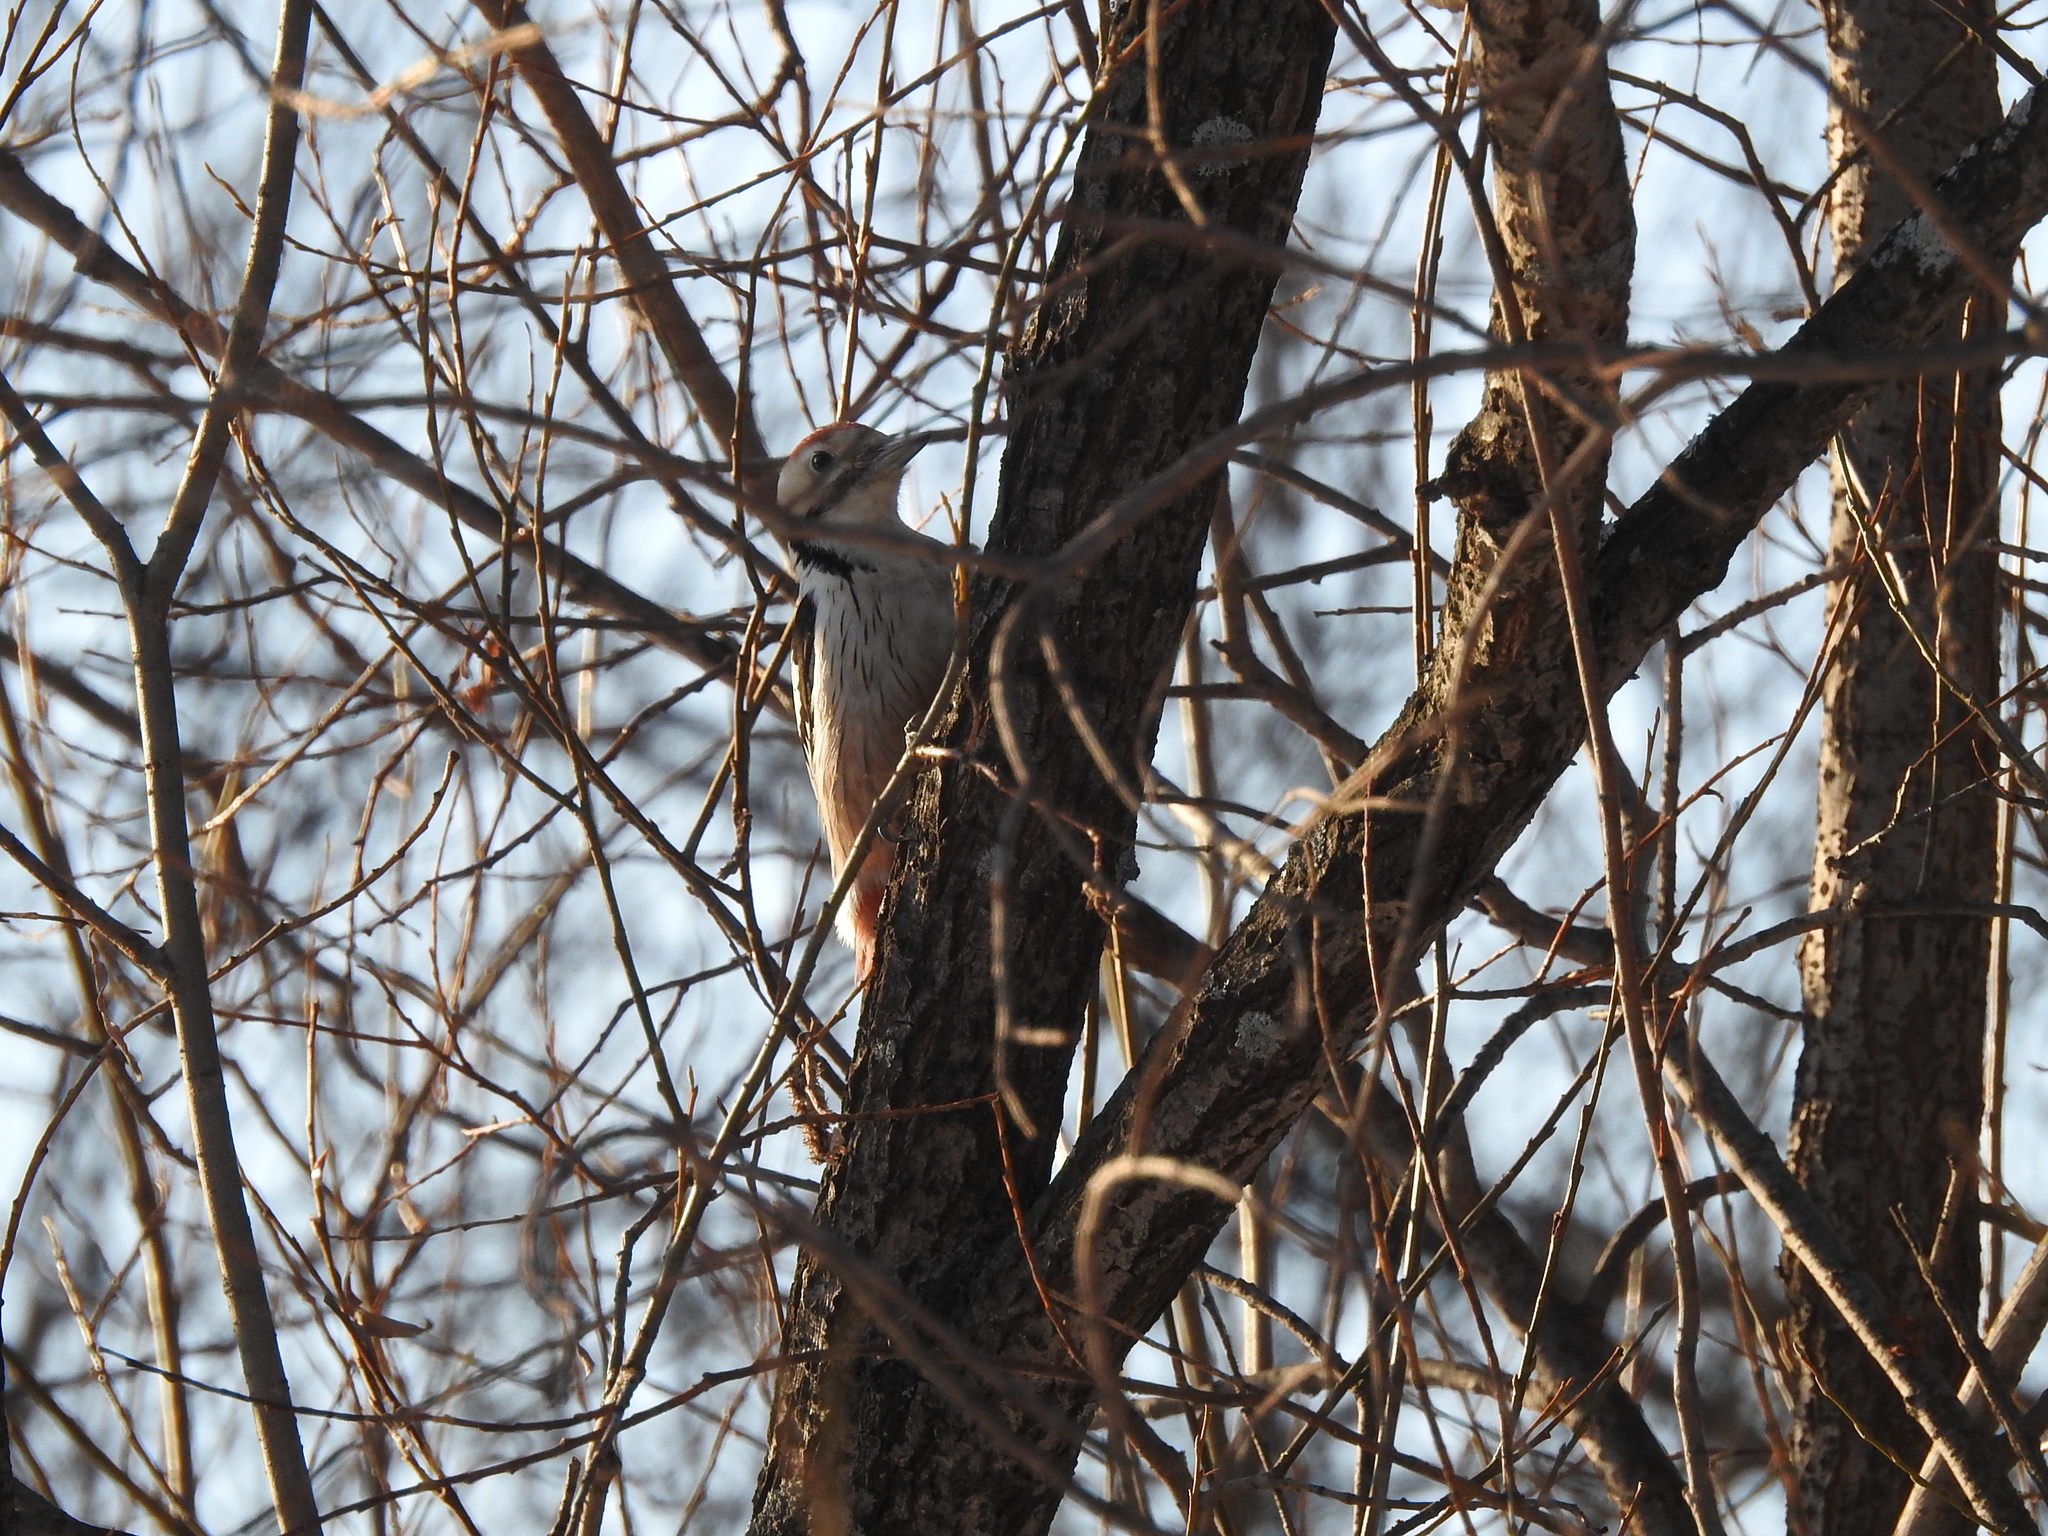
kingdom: Animalia
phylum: Chordata
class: Aves
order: Piciformes
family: Picidae
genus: Dendrocopos
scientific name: Dendrocopos leucotos
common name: White-backed woodpecker
